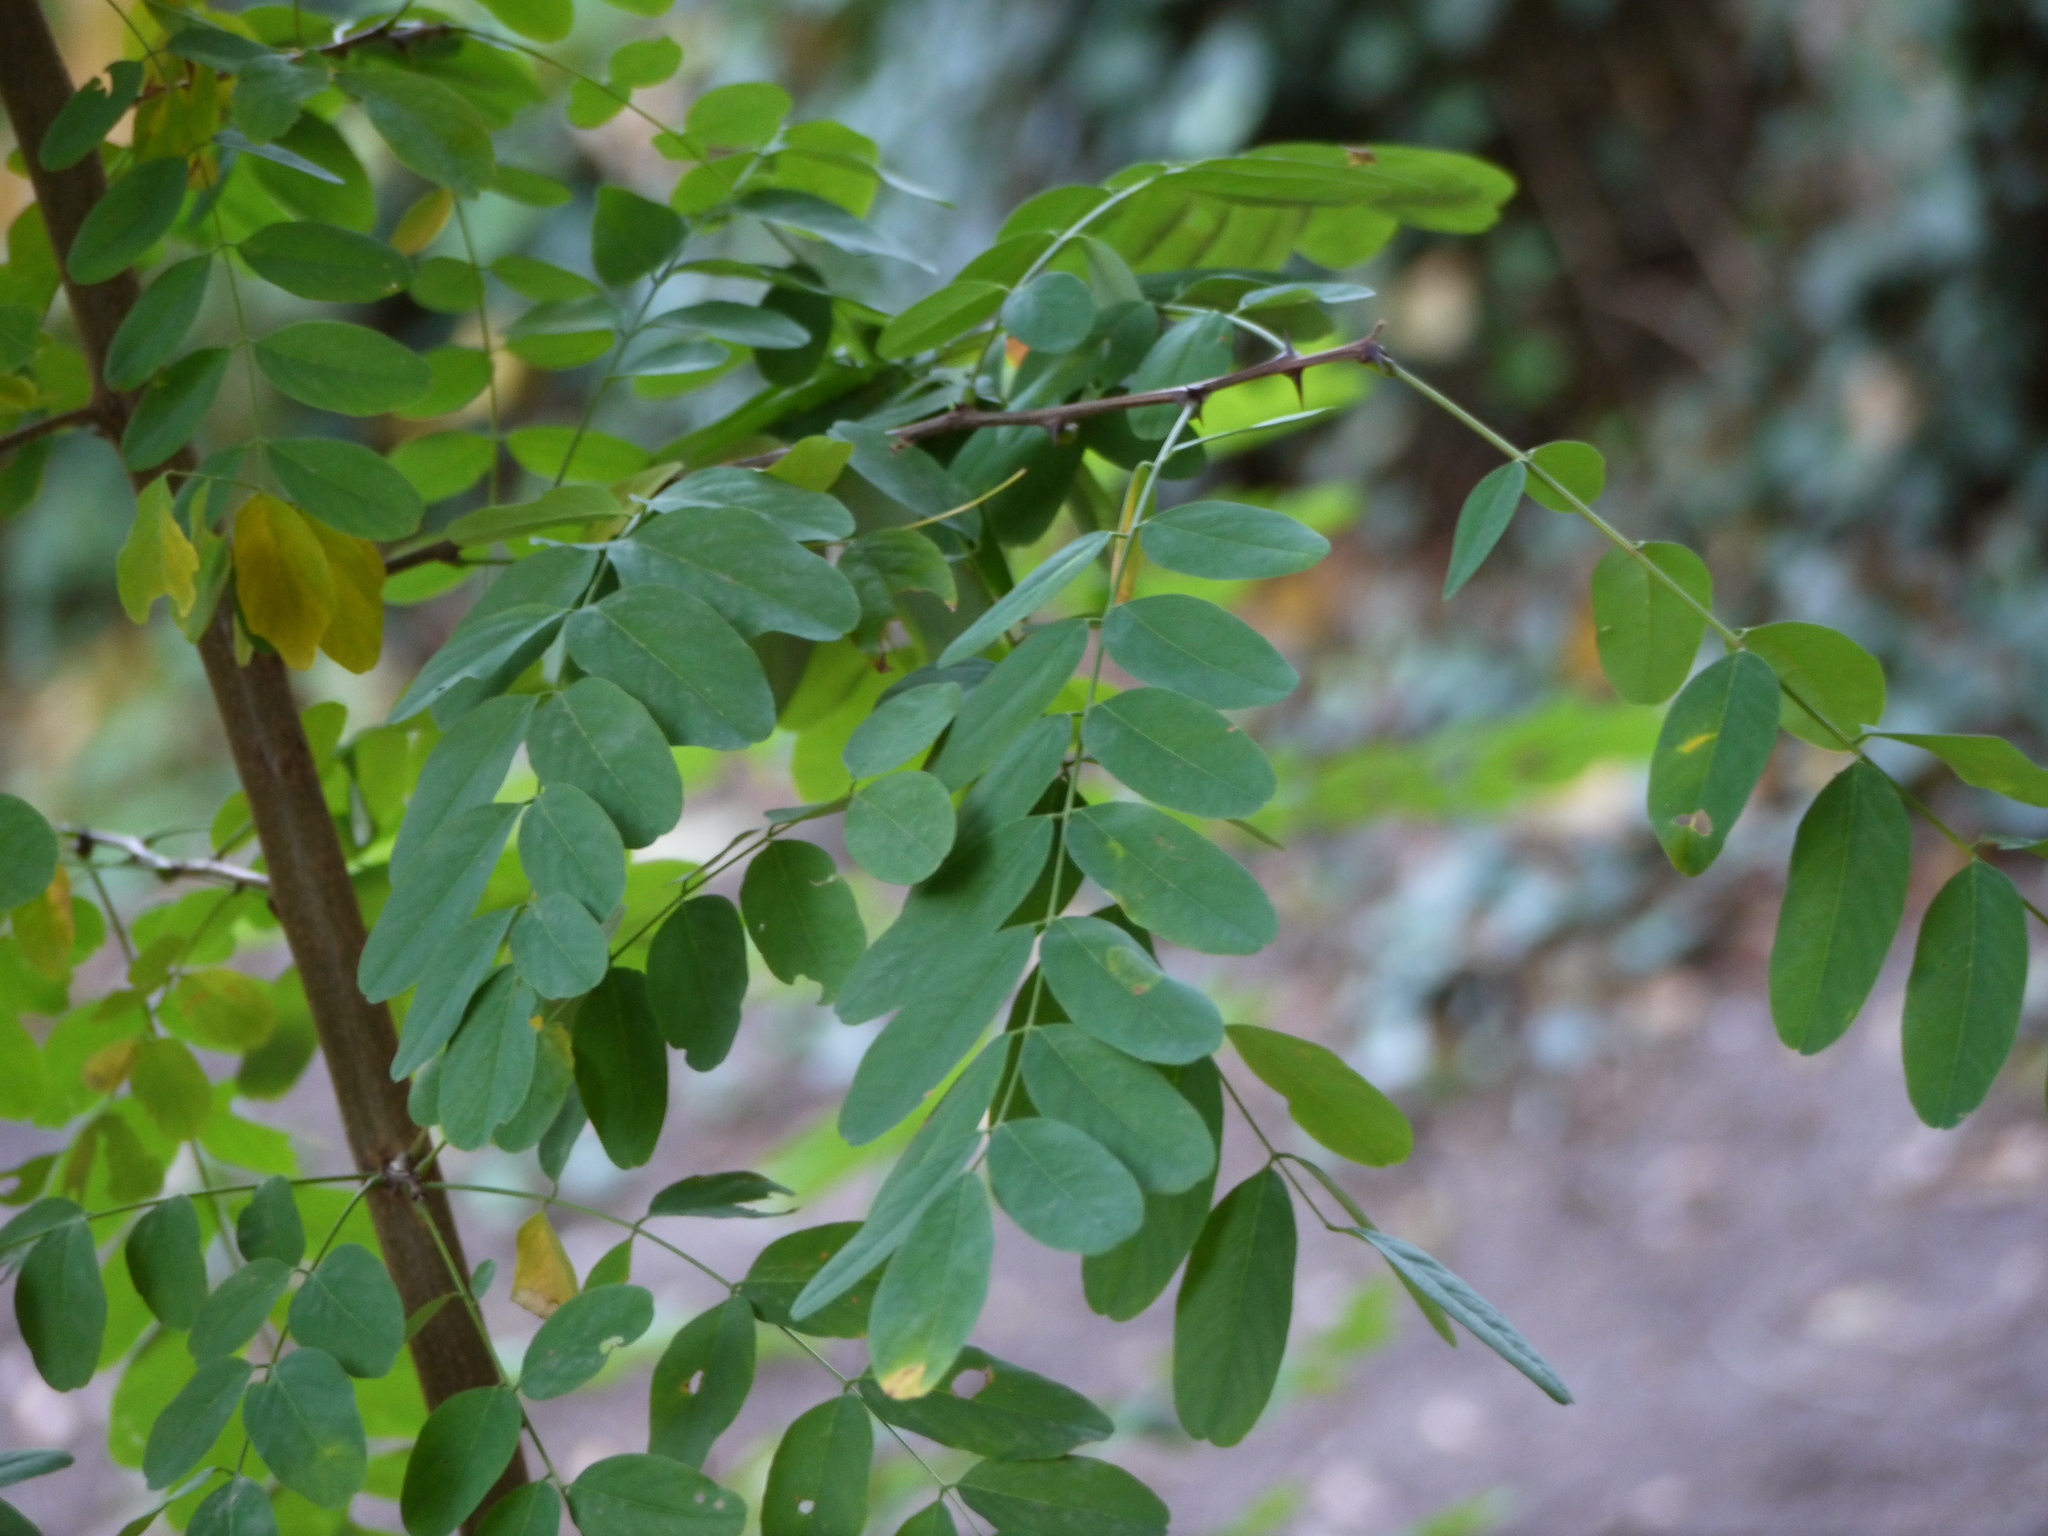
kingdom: Plantae
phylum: Tracheophyta
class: Magnoliopsida
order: Fabales
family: Fabaceae
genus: Robinia
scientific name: Robinia pseudoacacia
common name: Black locust
